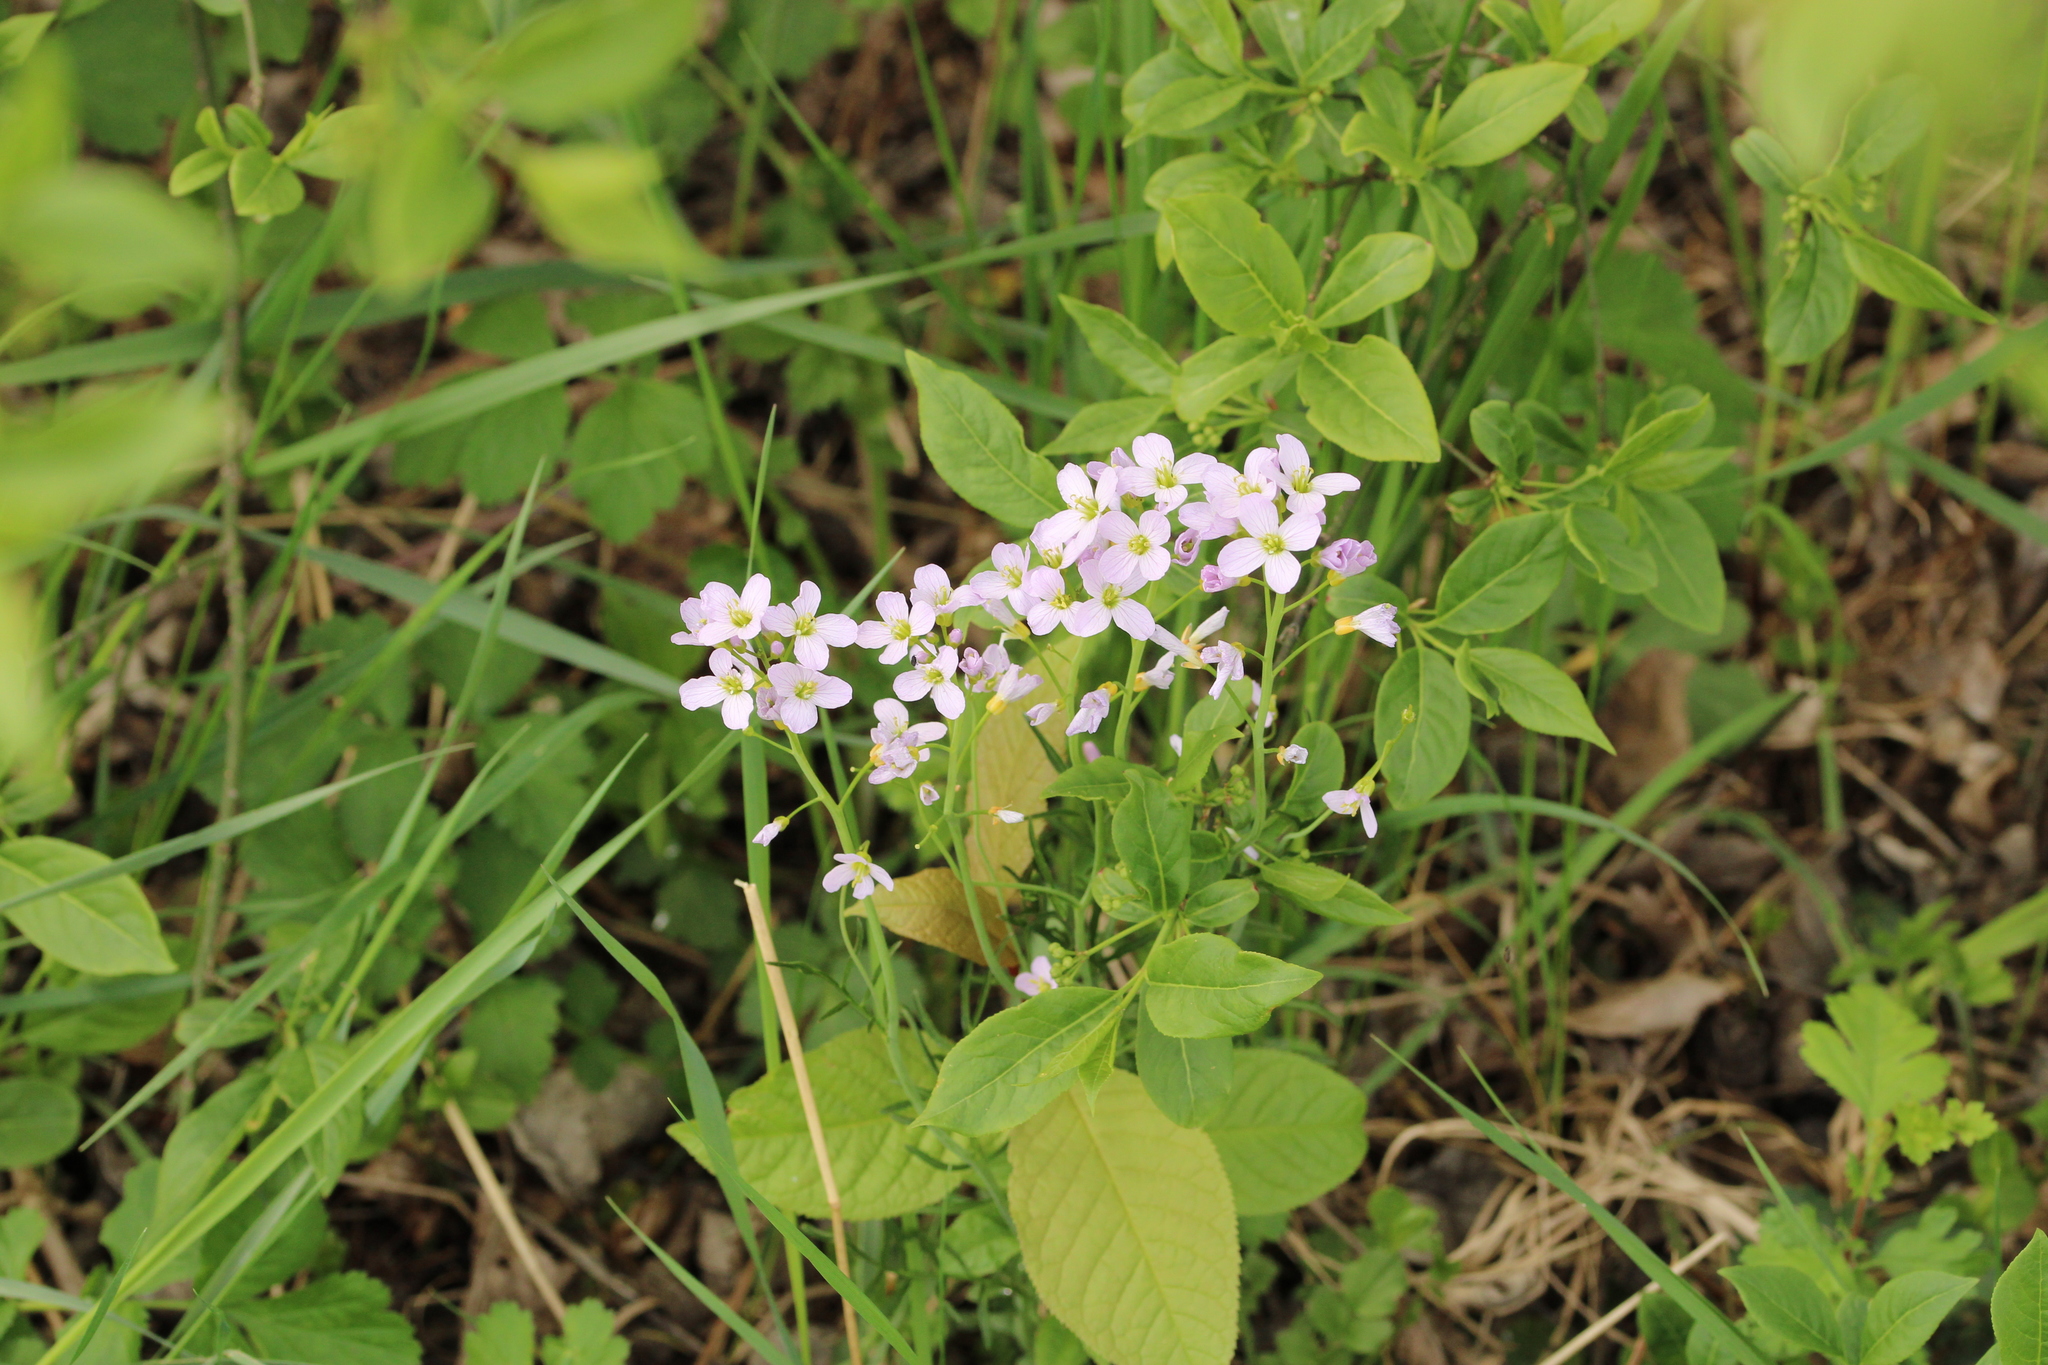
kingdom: Plantae
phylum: Tracheophyta
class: Magnoliopsida
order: Brassicales
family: Brassicaceae
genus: Cardamine
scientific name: Cardamine pratensis
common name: Cuckoo flower
